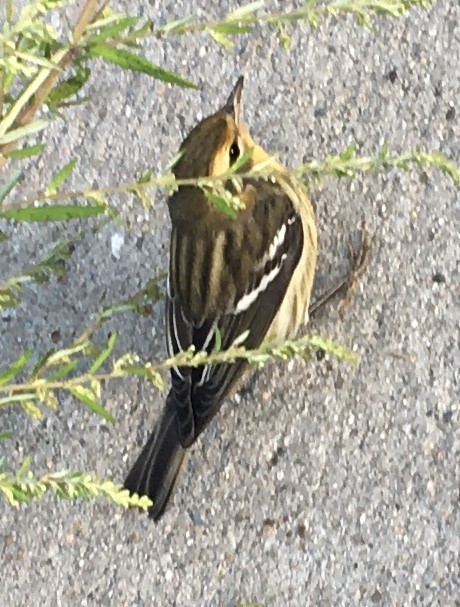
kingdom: Animalia
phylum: Chordata
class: Aves
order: Passeriformes
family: Parulidae
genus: Setophaga
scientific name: Setophaga fusca
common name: Blackburnian warbler
